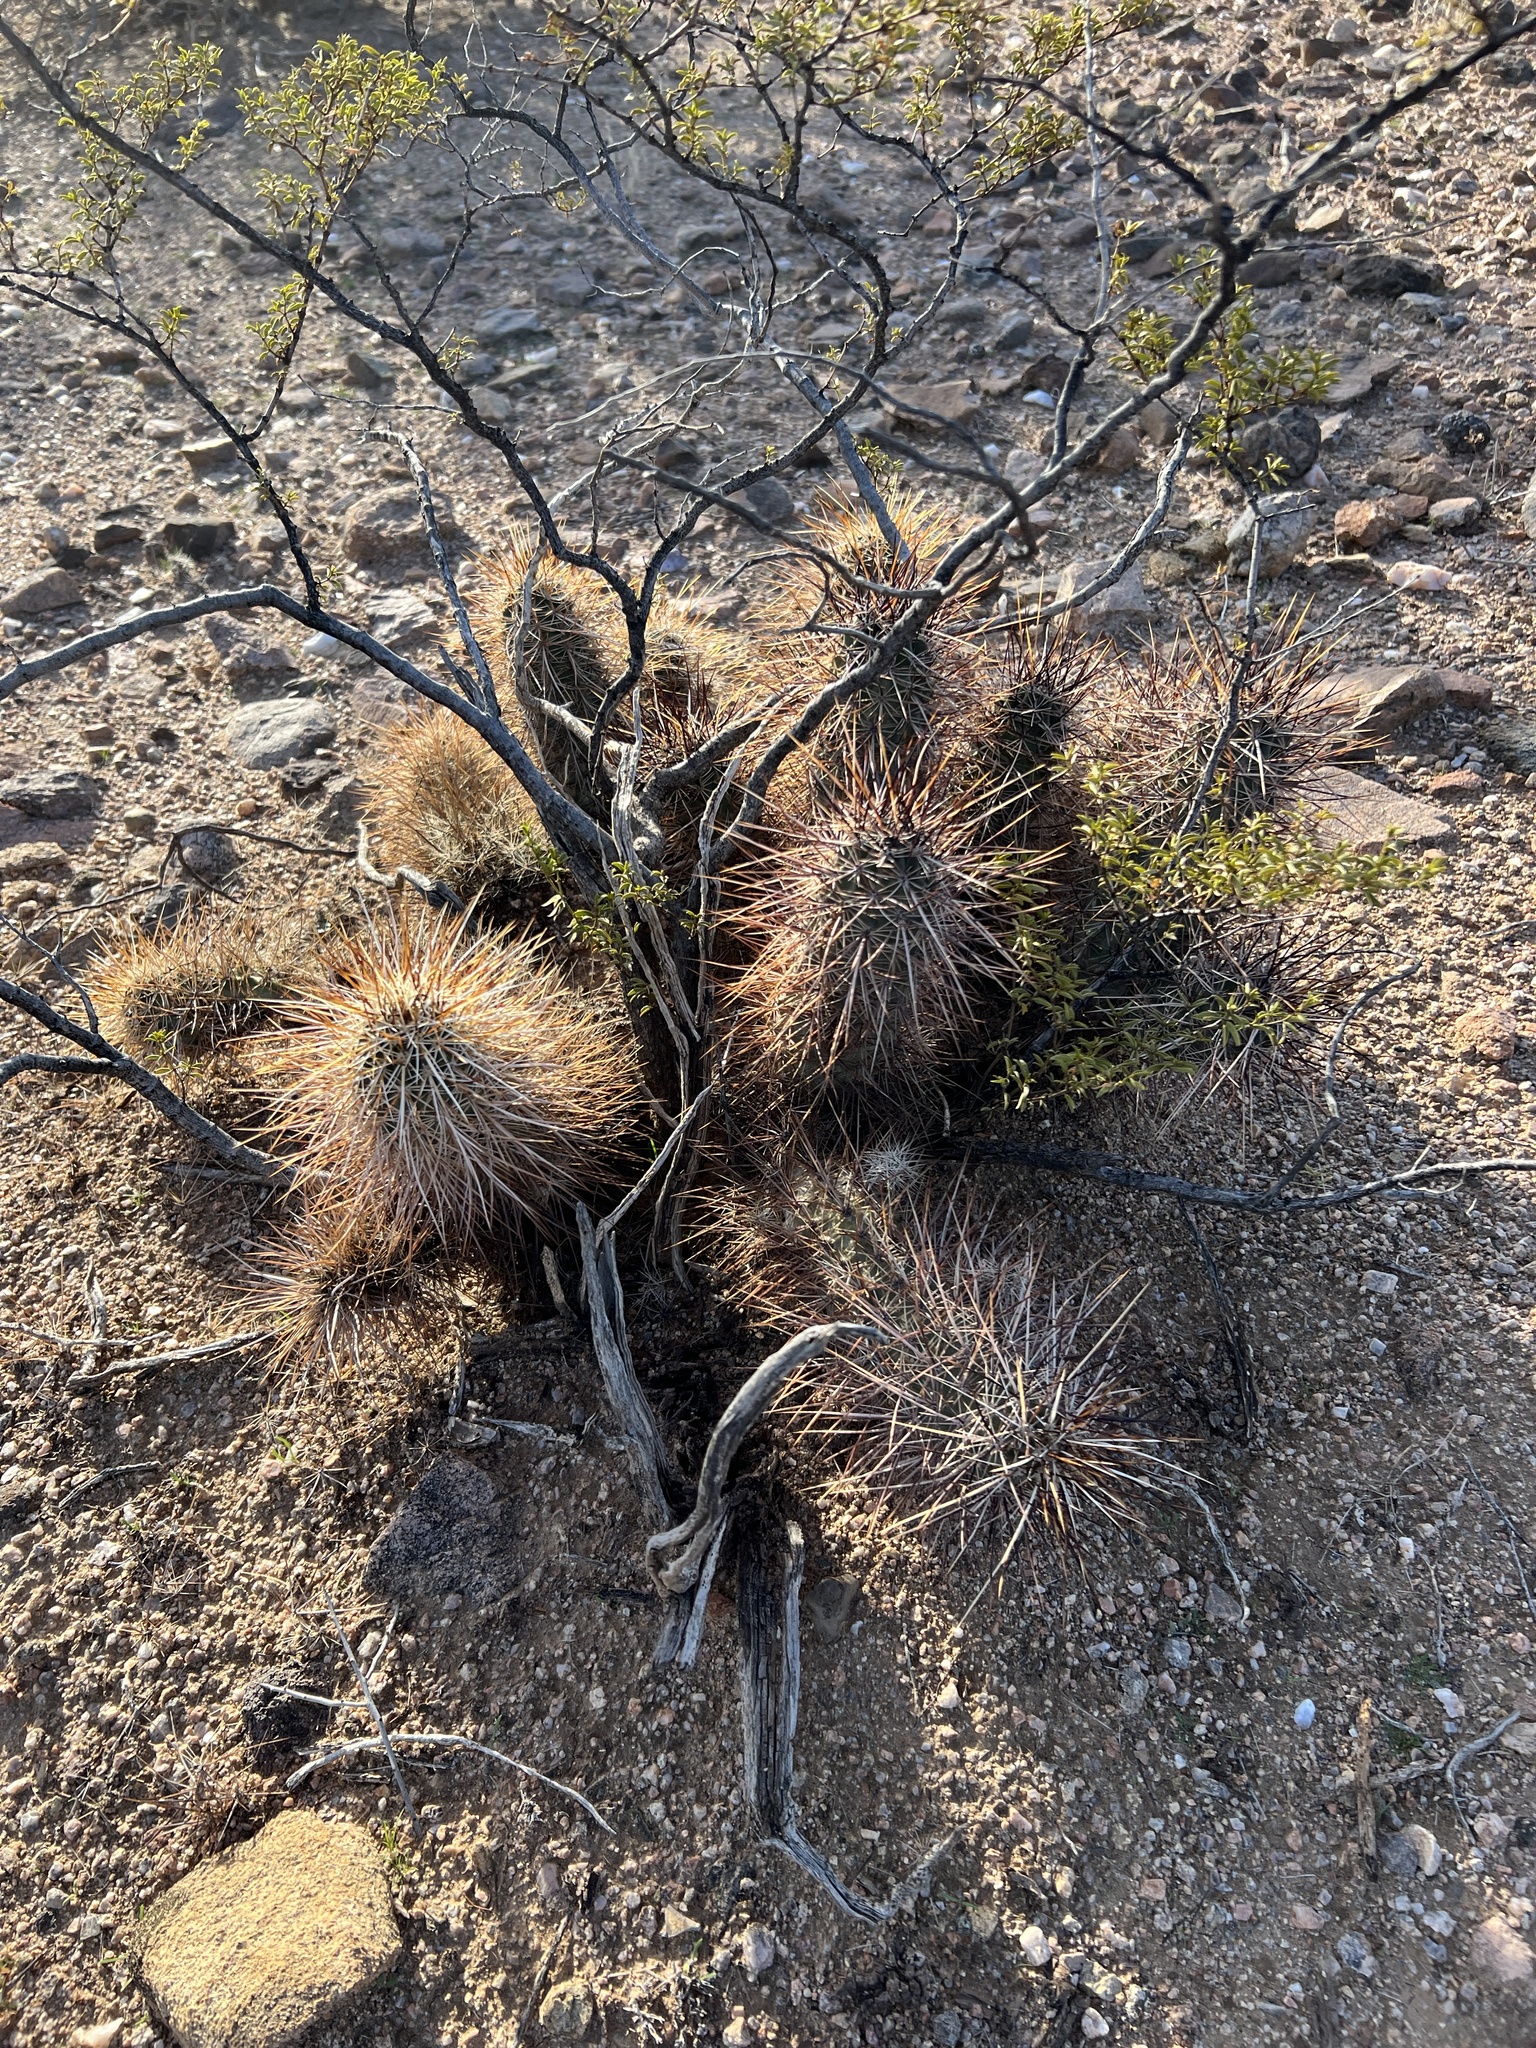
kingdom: Plantae
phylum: Tracheophyta
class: Magnoliopsida
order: Caryophyllales
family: Cactaceae
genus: Echinocereus
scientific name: Echinocereus engelmannii
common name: Engelmann's hedgehog cactus
